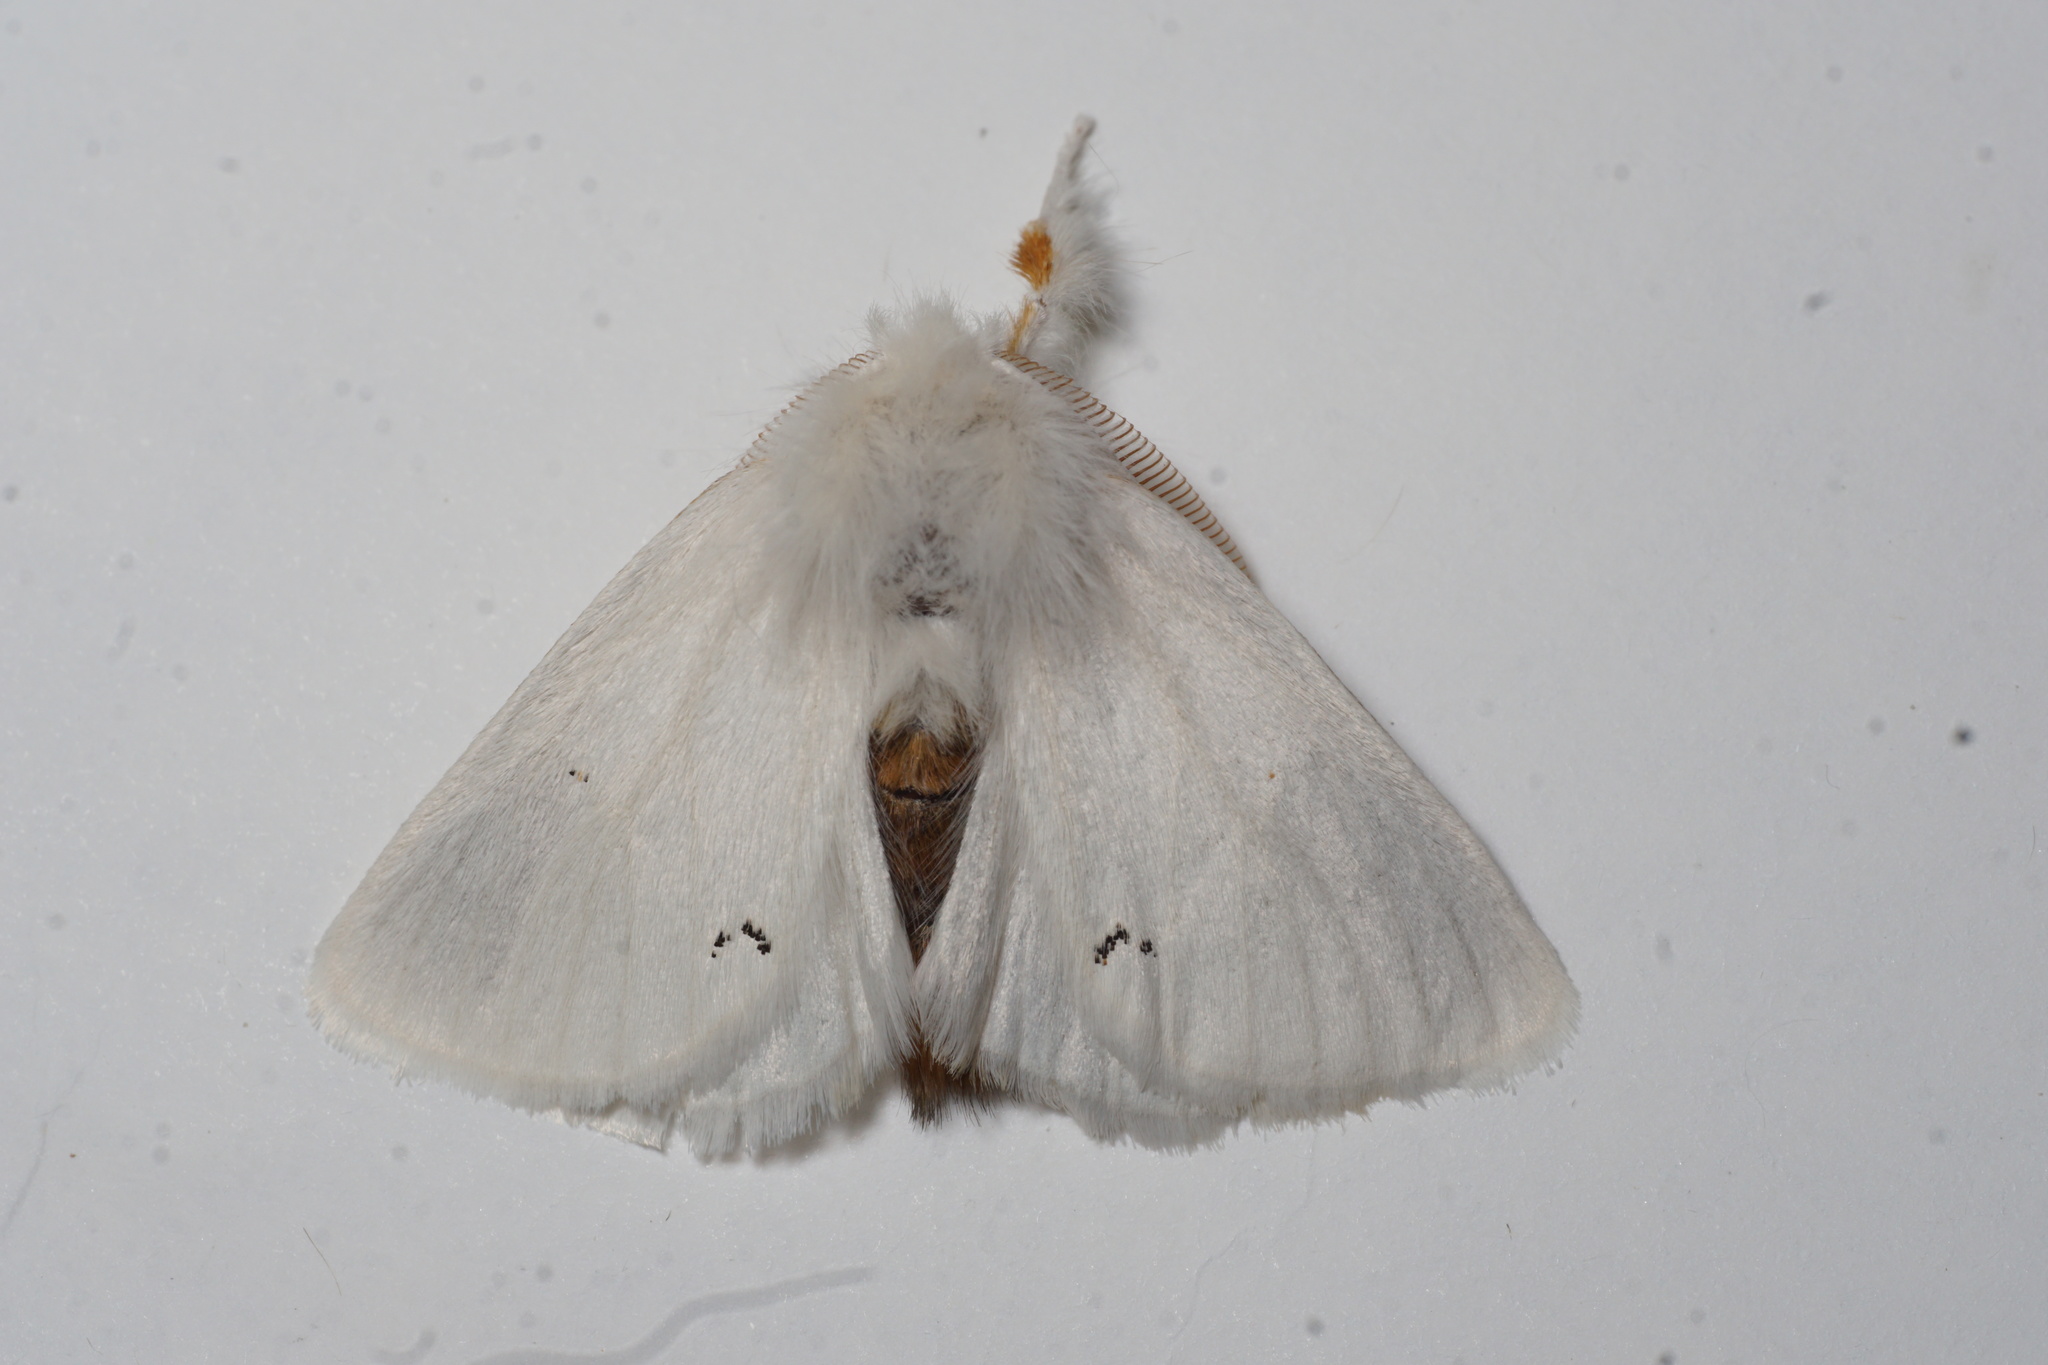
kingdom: Animalia
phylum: Arthropoda
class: Insecta
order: Lepidoptera
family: Erebidae
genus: Euproctis
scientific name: Euproctis chrysorrhoea
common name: Brown-tail
